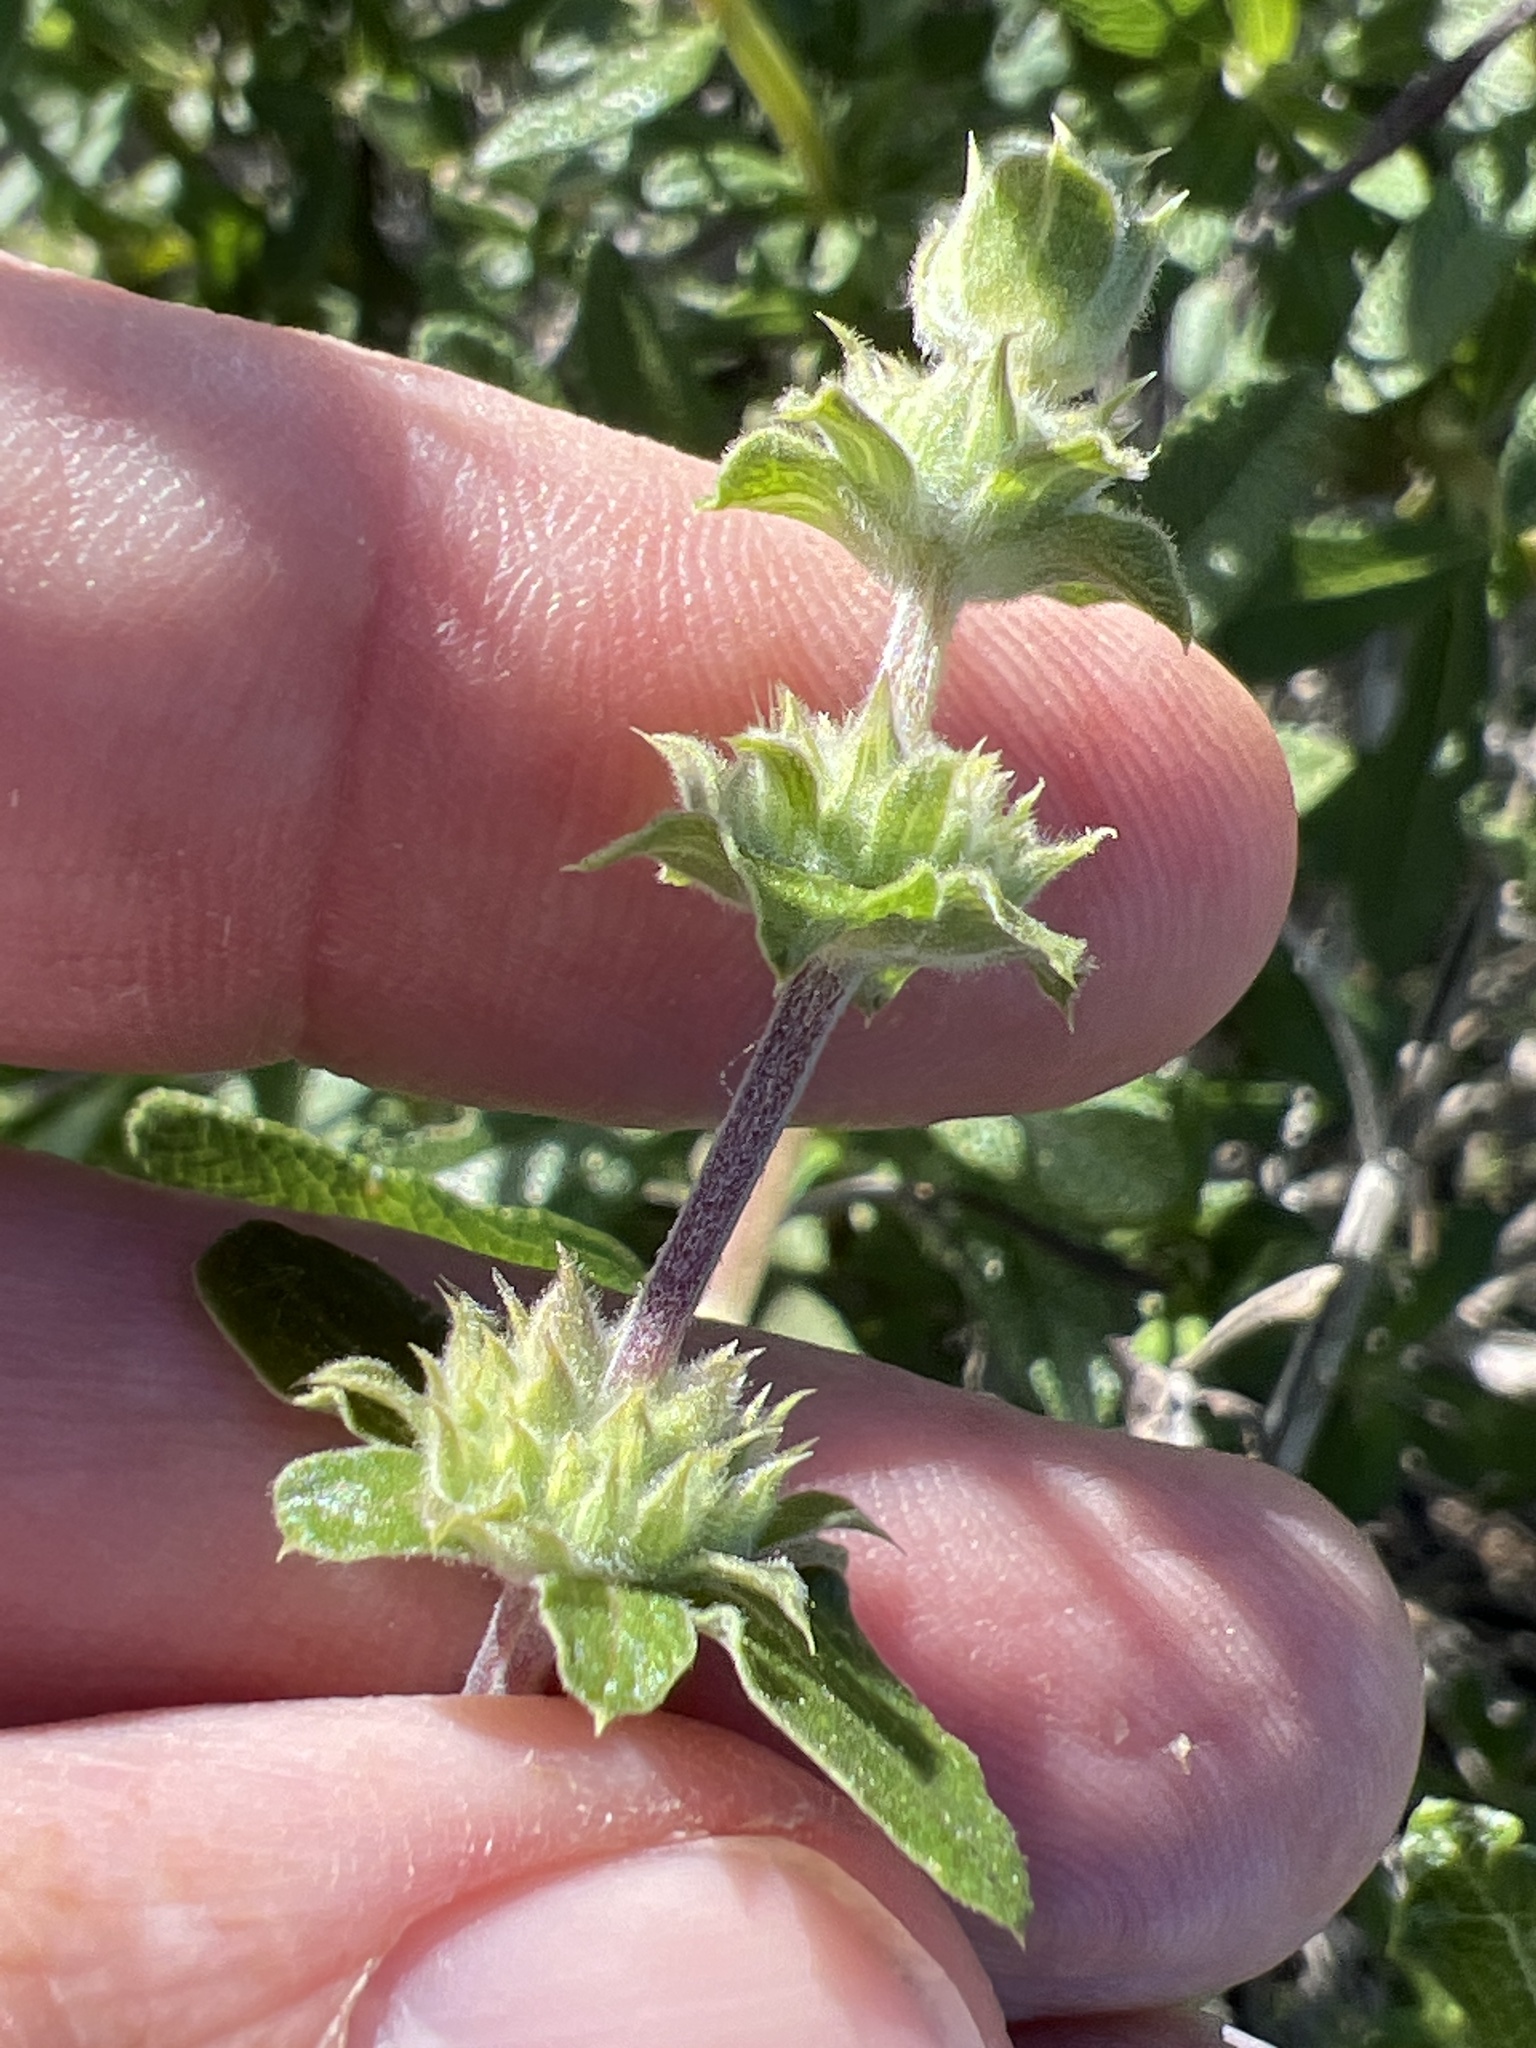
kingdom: Plantae
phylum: Tracheophyta
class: Magnoliopsida
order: Lamiales
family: Lamiaceae
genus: Salvia
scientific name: Salvia mellifera
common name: Black sage
